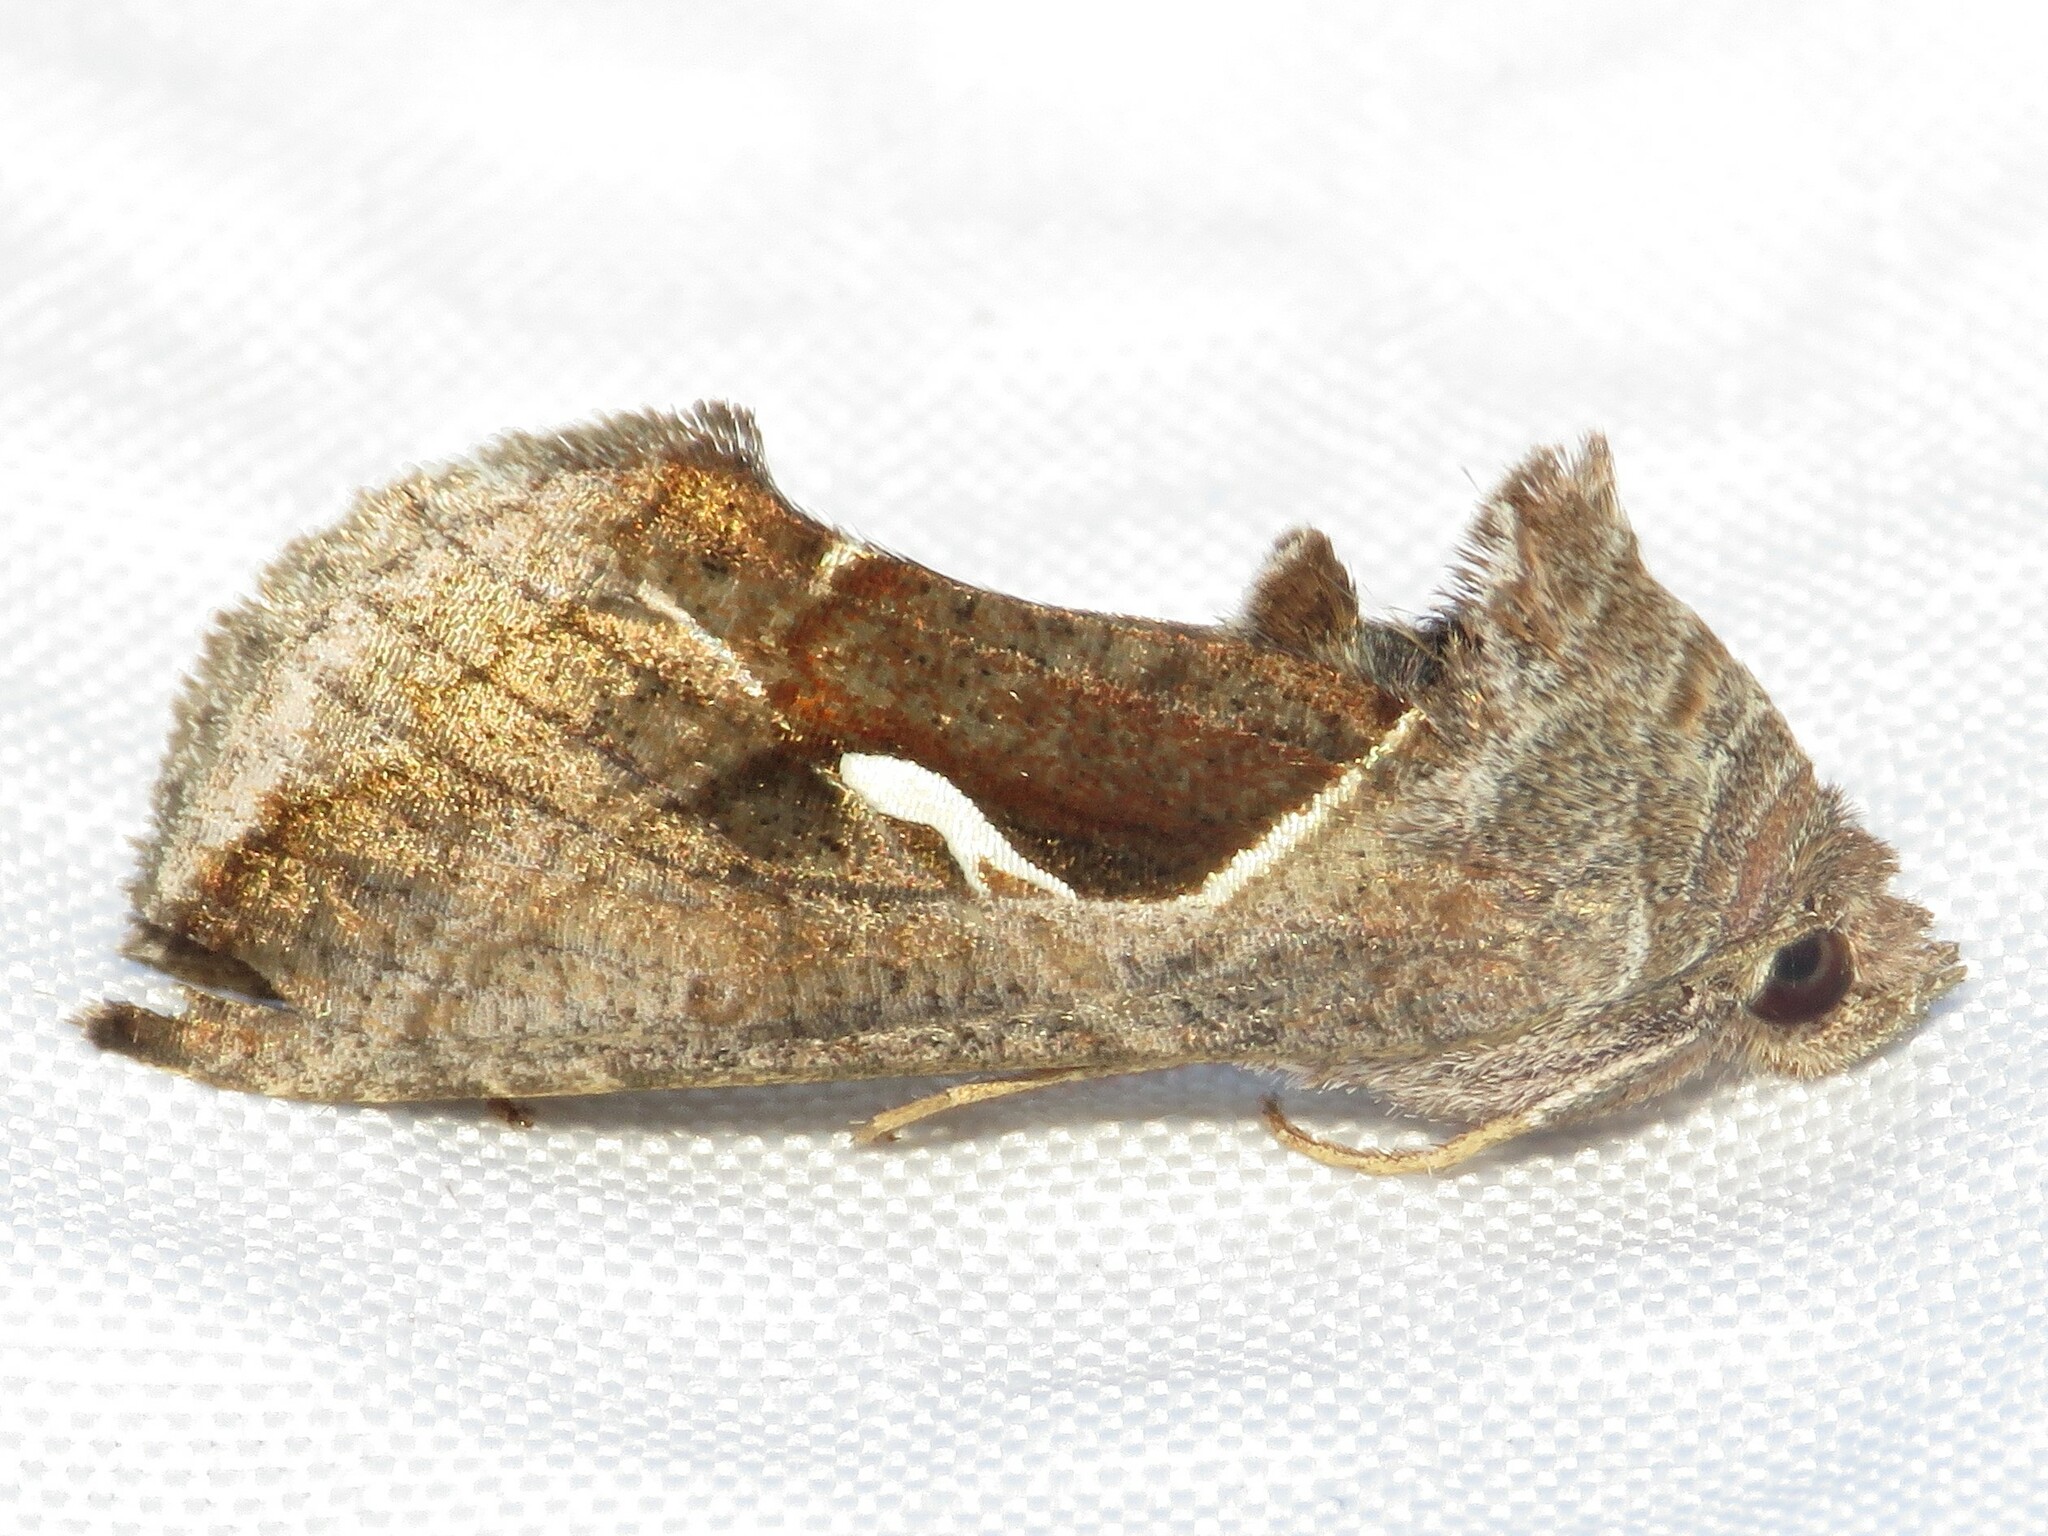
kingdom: Animalia
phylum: Arthropoda
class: Insecta
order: Lepidoptera
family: Noctuidae
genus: Anagrapha
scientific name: Anagrapha falcifera
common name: Celery looper
